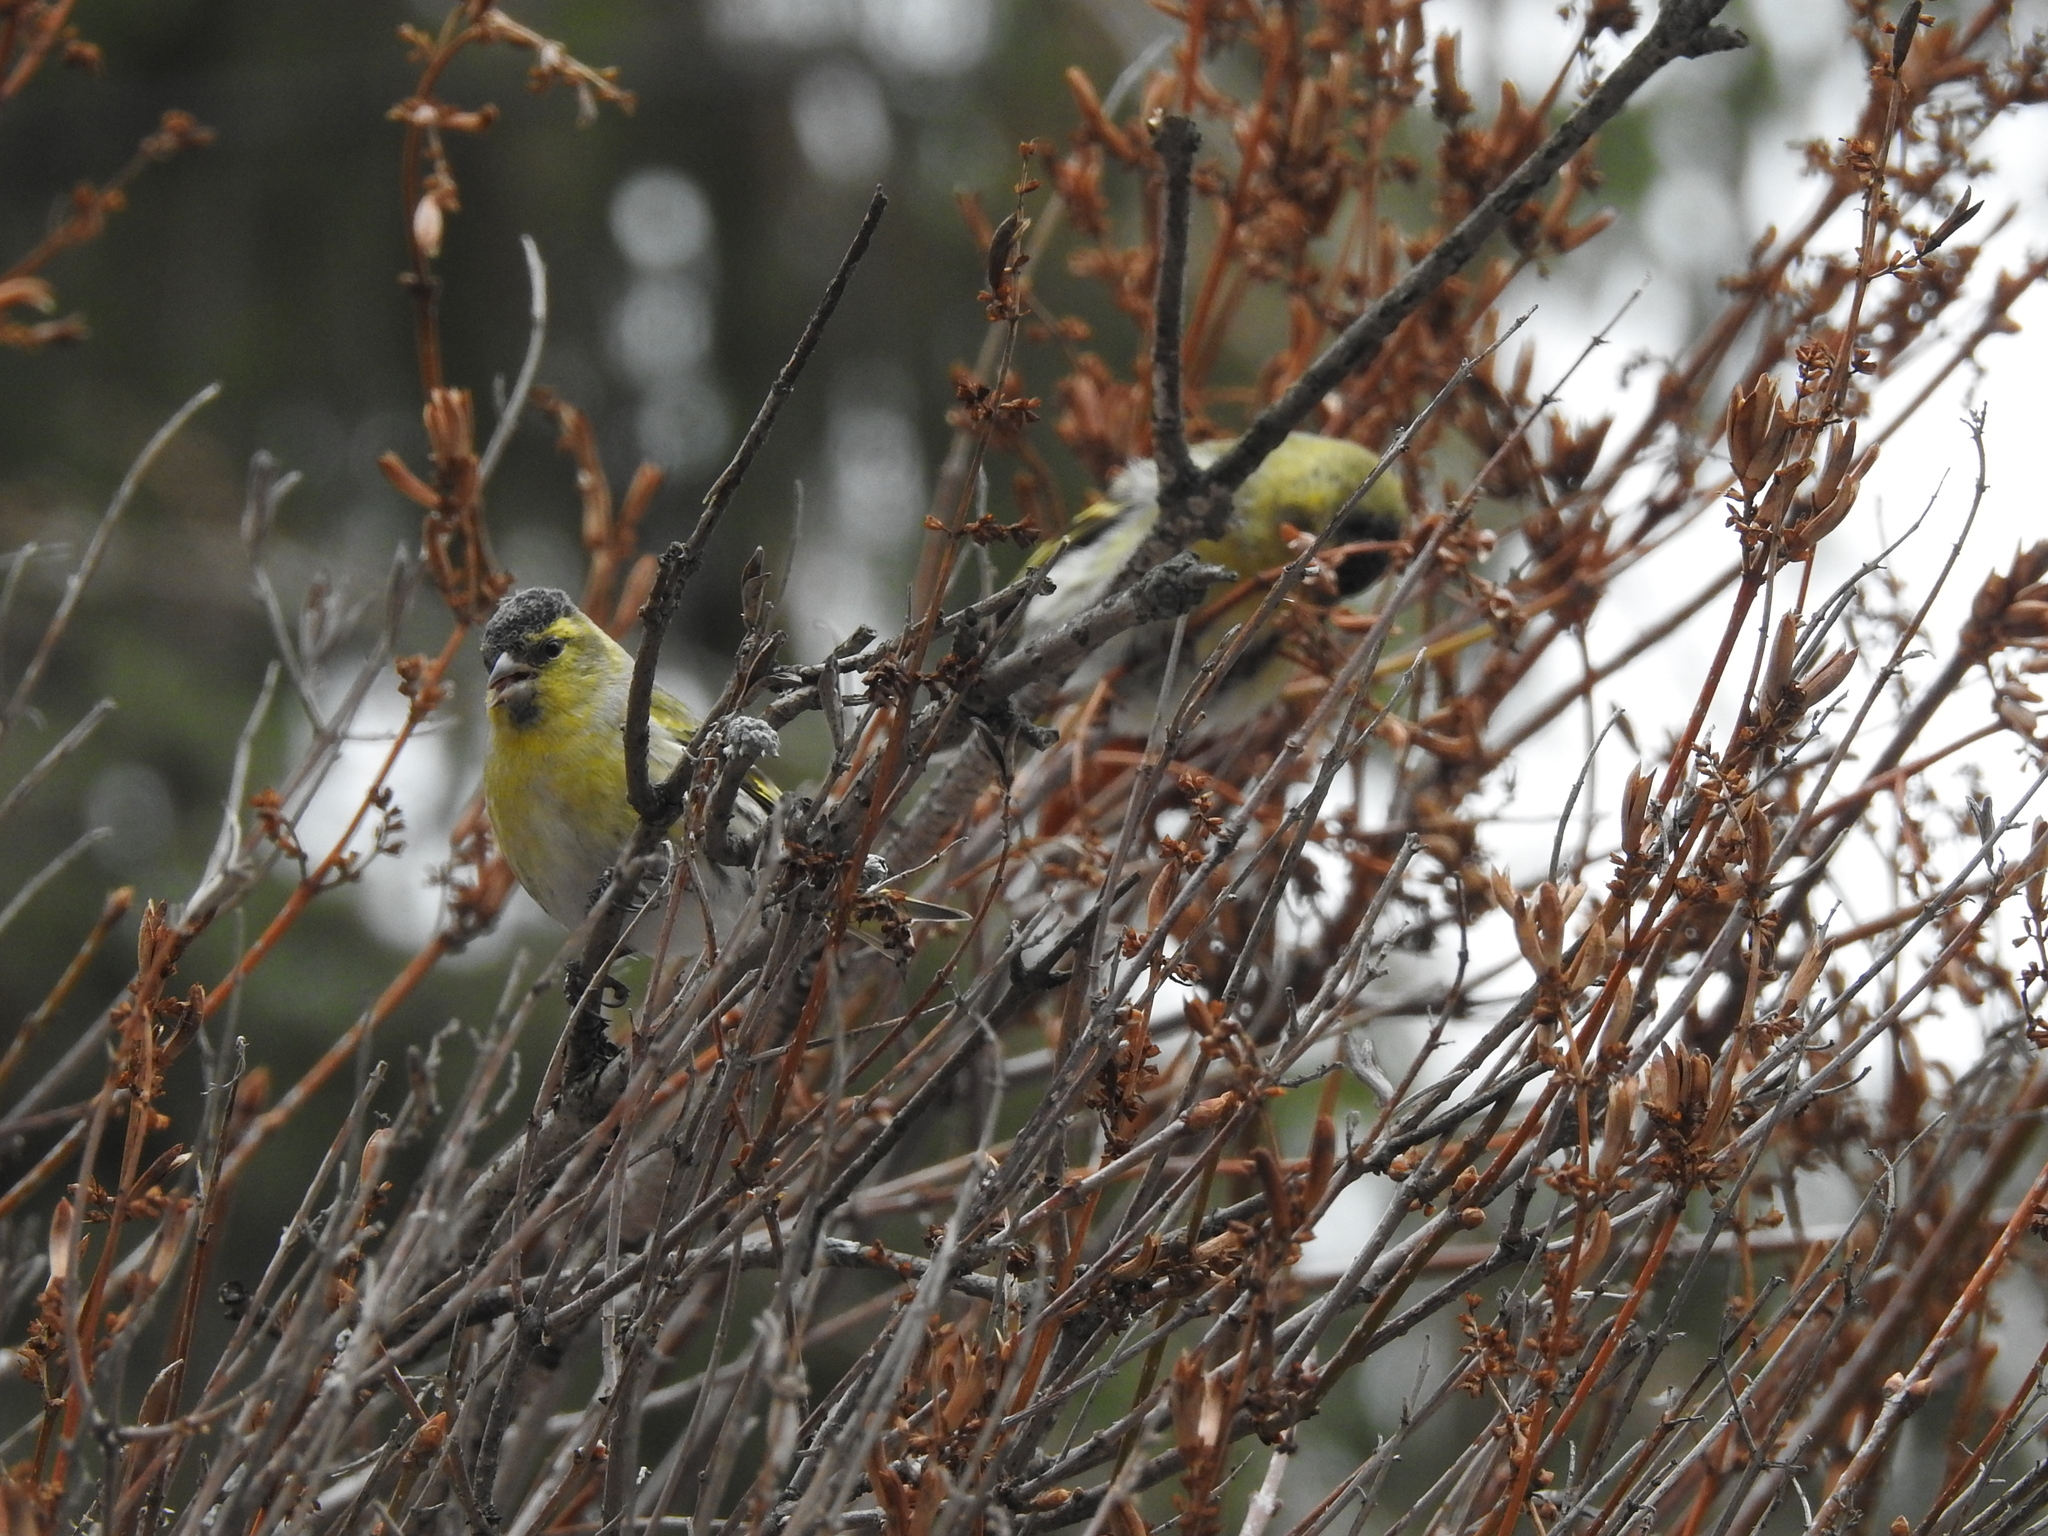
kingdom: Animalia
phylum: Chordata
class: Aves
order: Passeriformes
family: Fringillidae
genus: Spinus
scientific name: Spinus spinus
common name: Eurasian siskin
